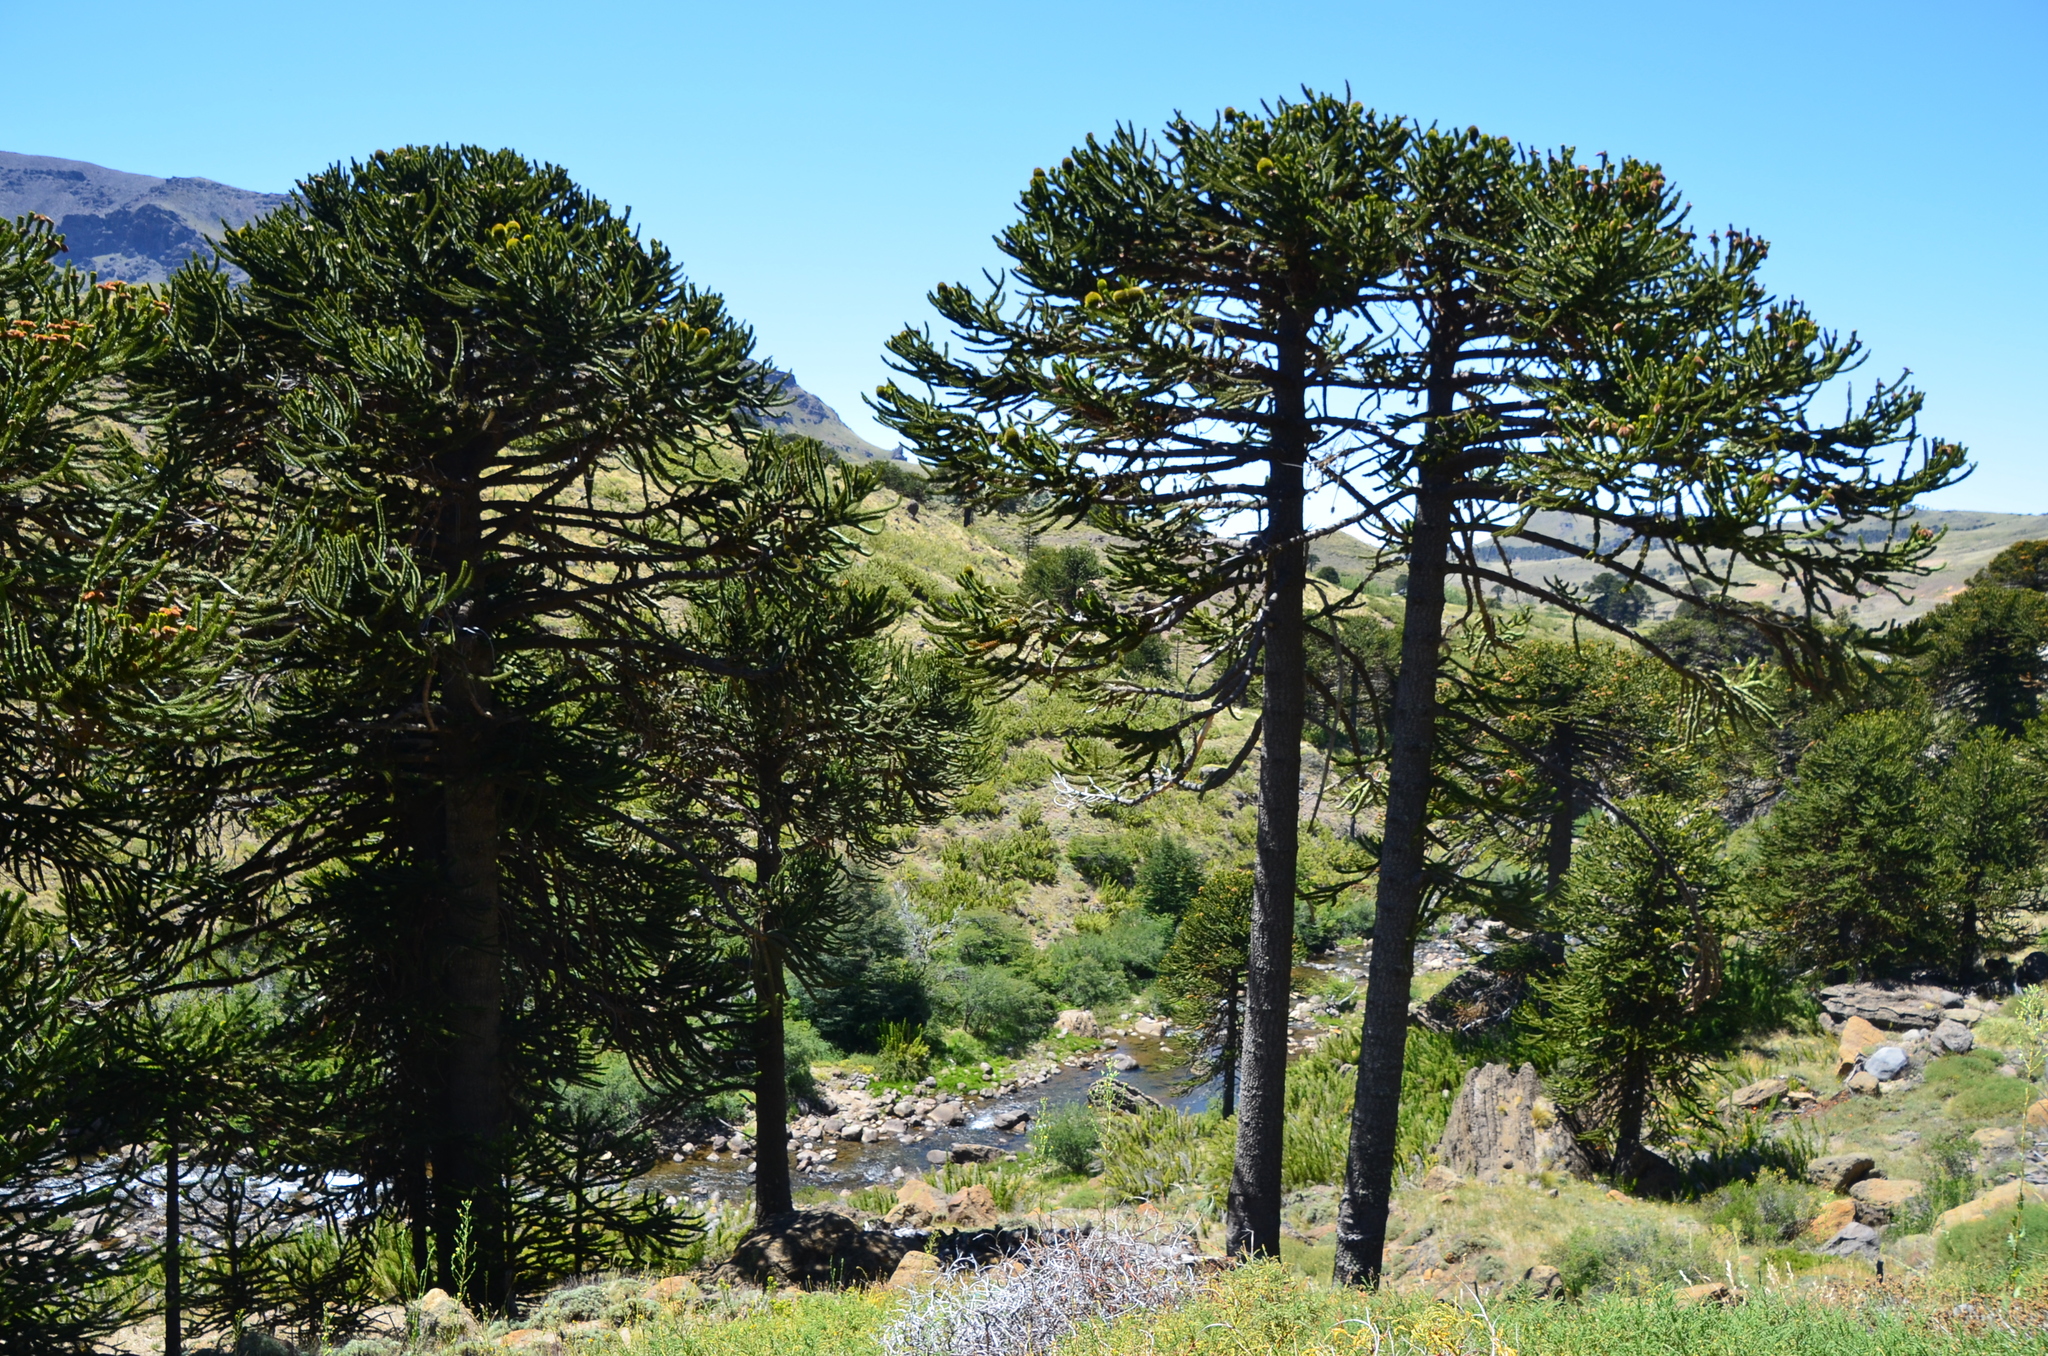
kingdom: Plantae
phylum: Tracheophyta
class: Pinopsida
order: Pinales
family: Araucariaceae
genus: Araucaria
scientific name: Araucaria araucana
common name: Monkey-puzzle
